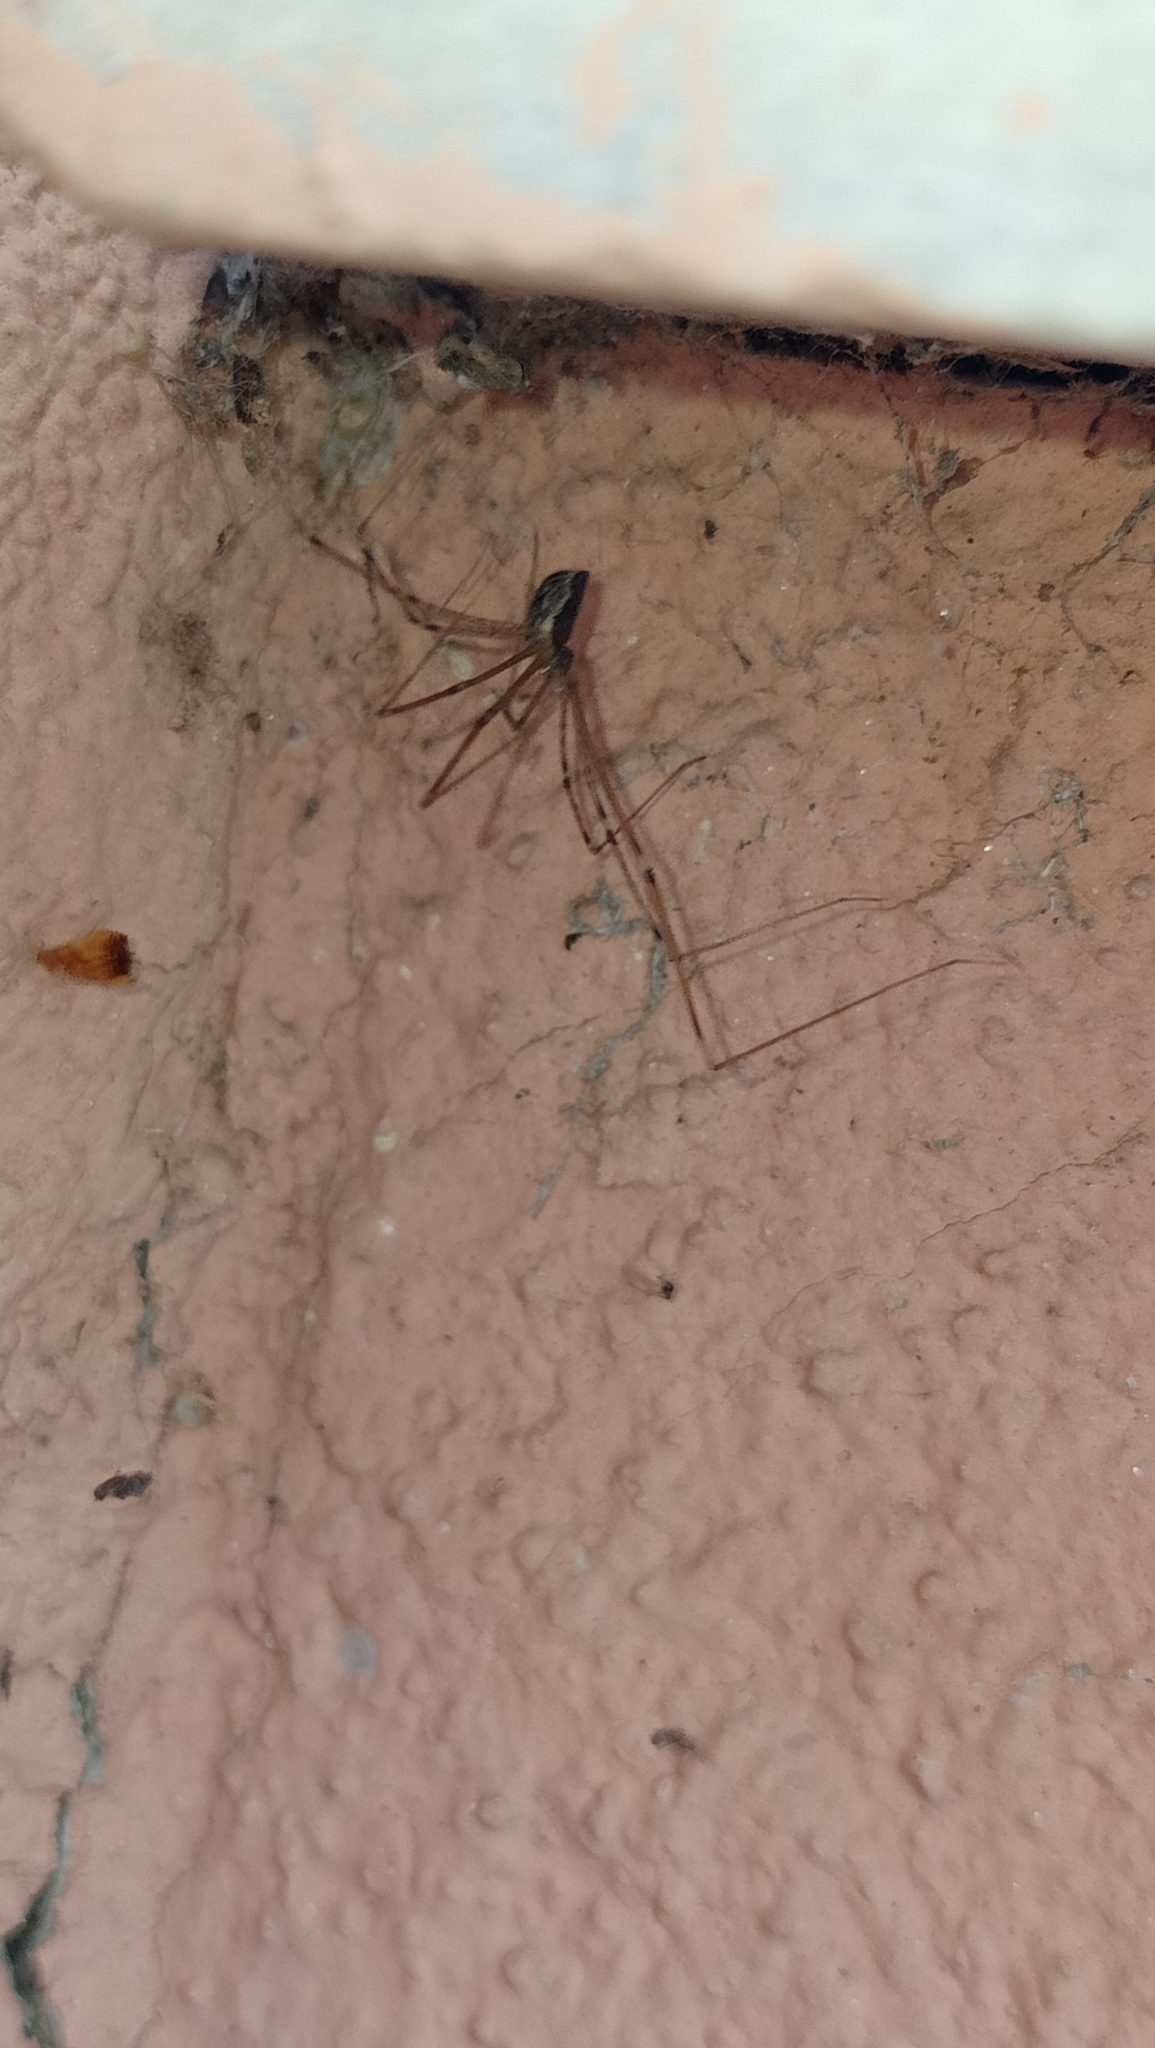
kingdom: Animalia
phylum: Arthropoda
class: Arachnida
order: Araneae
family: Pholcidae
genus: Holocnemus
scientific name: Holocnemus pluchei
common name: Marbled cellar spider
